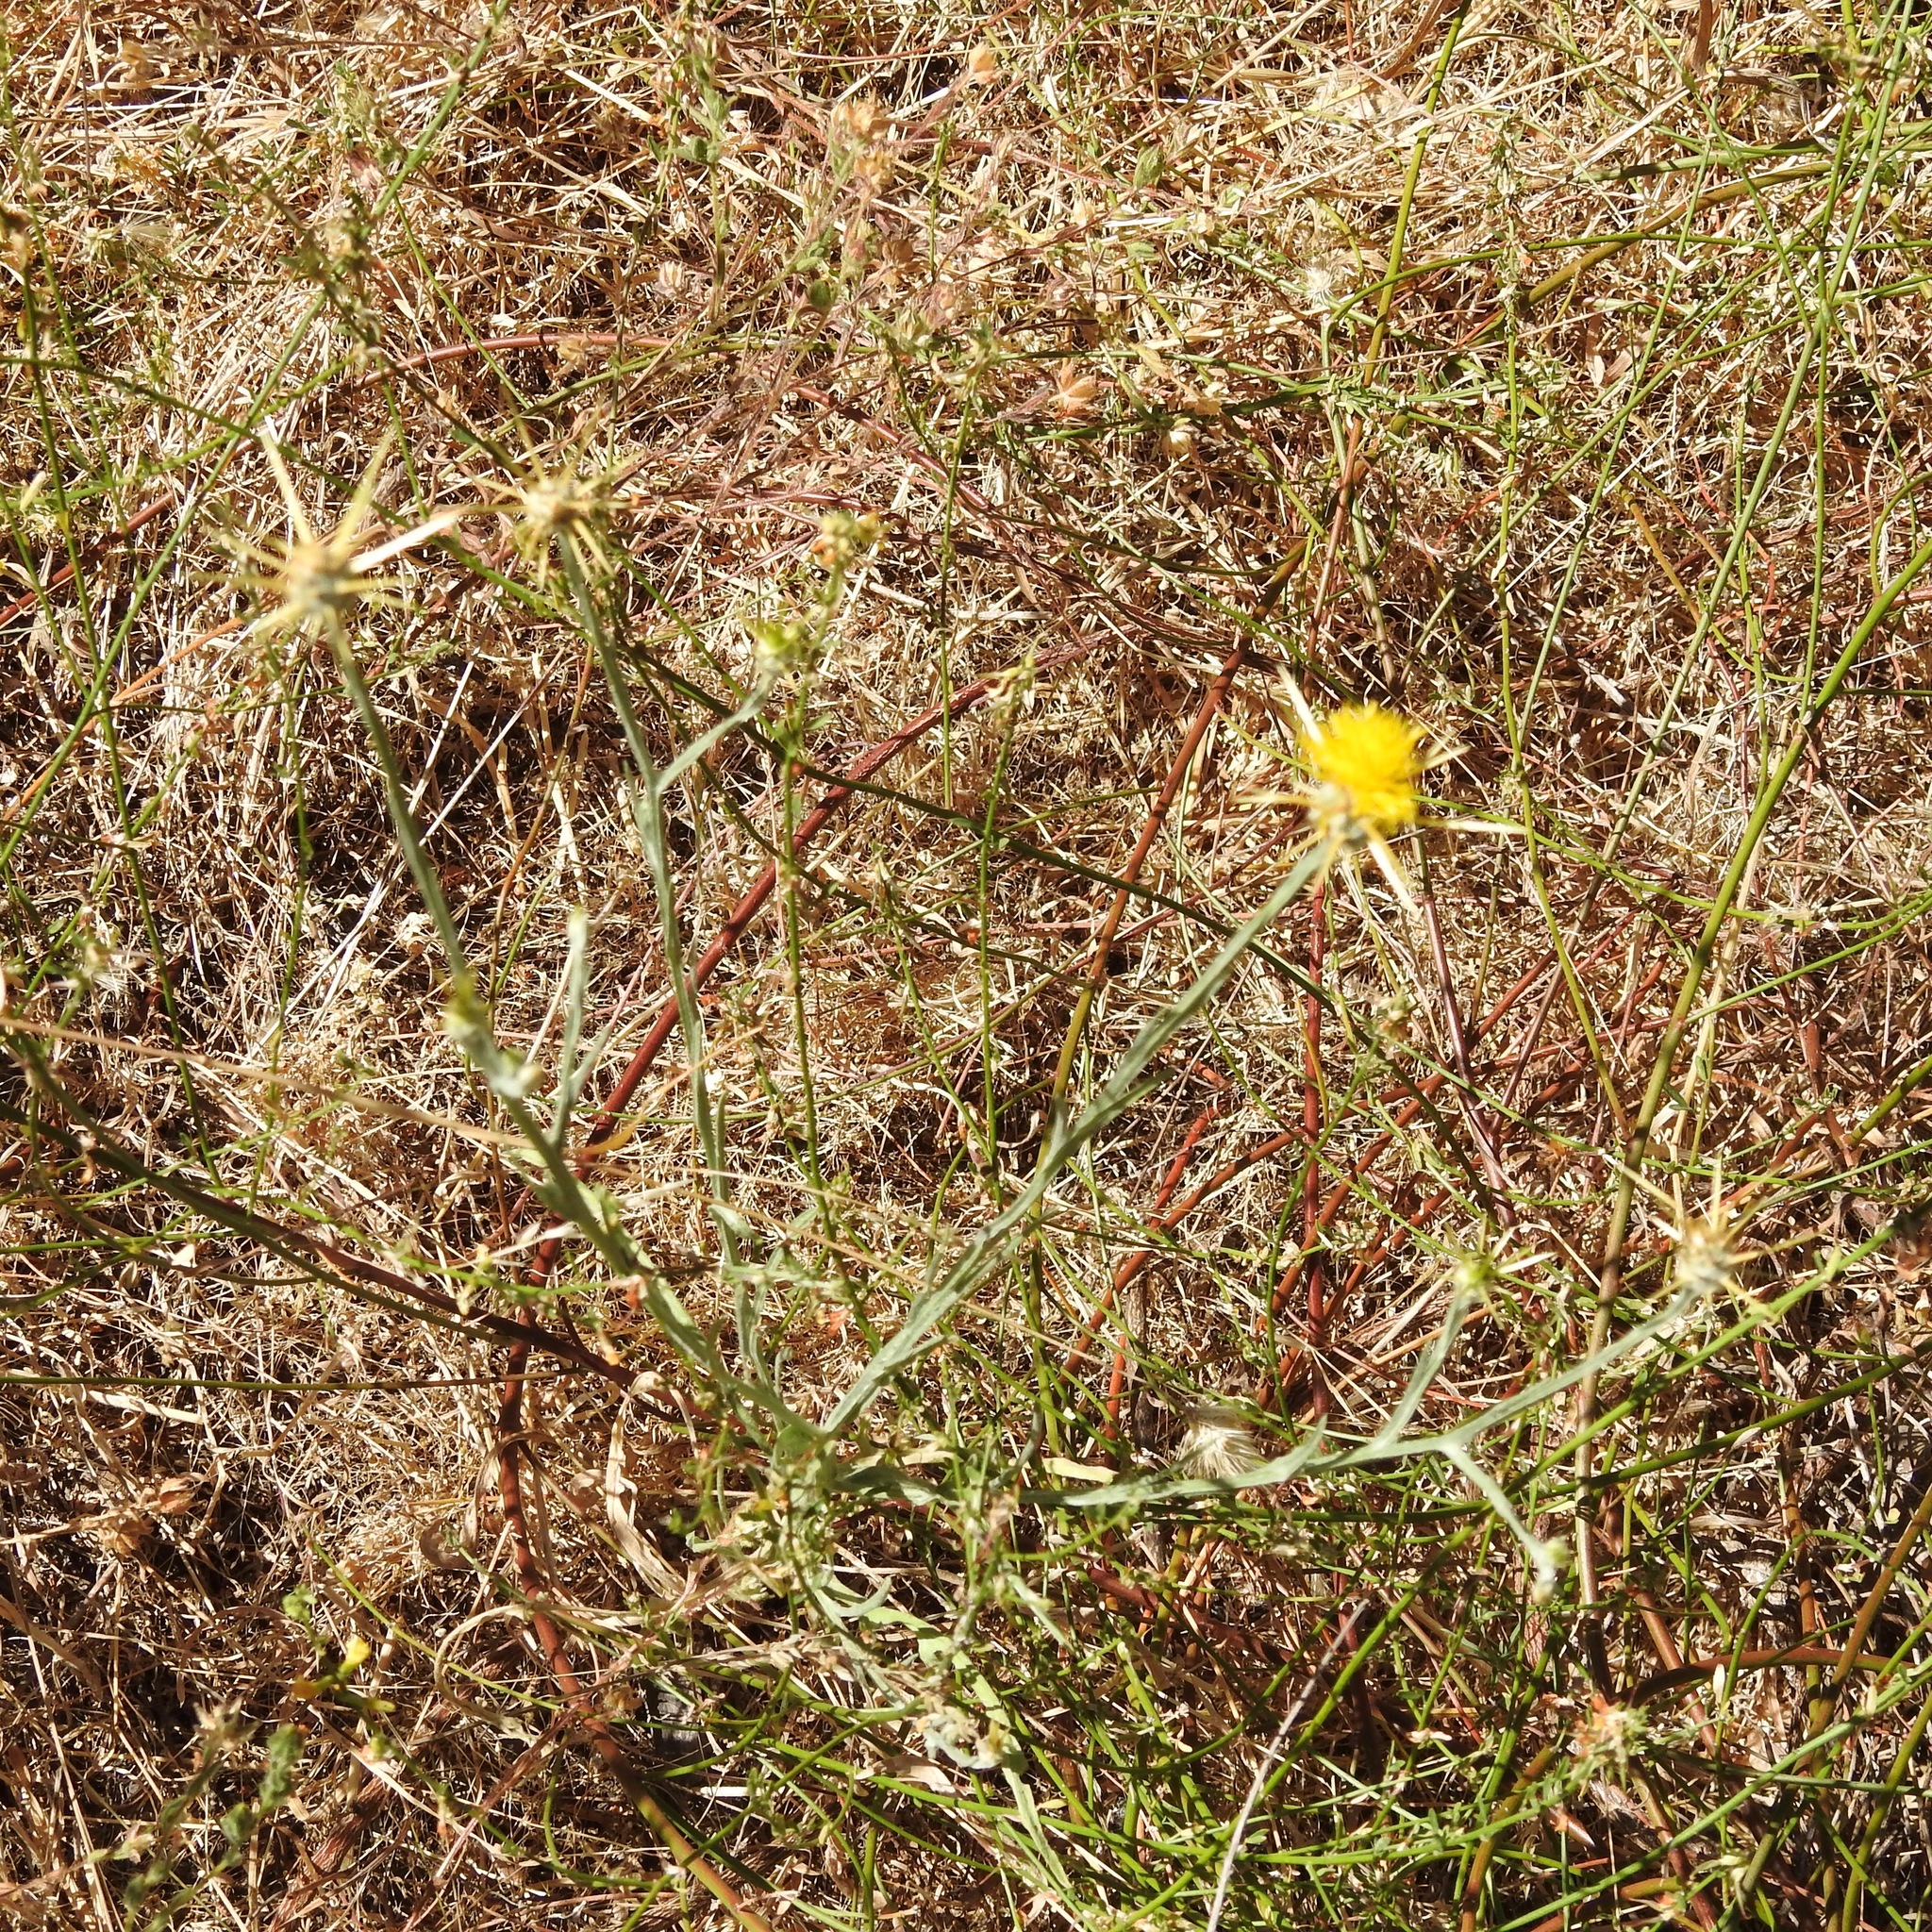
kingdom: Plantae
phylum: Tracheophyta
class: Magnoliopsida
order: Asterales
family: Asteraceae
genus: Centaurea
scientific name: Centaurea solstitialis
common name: Yellow star-thistle
